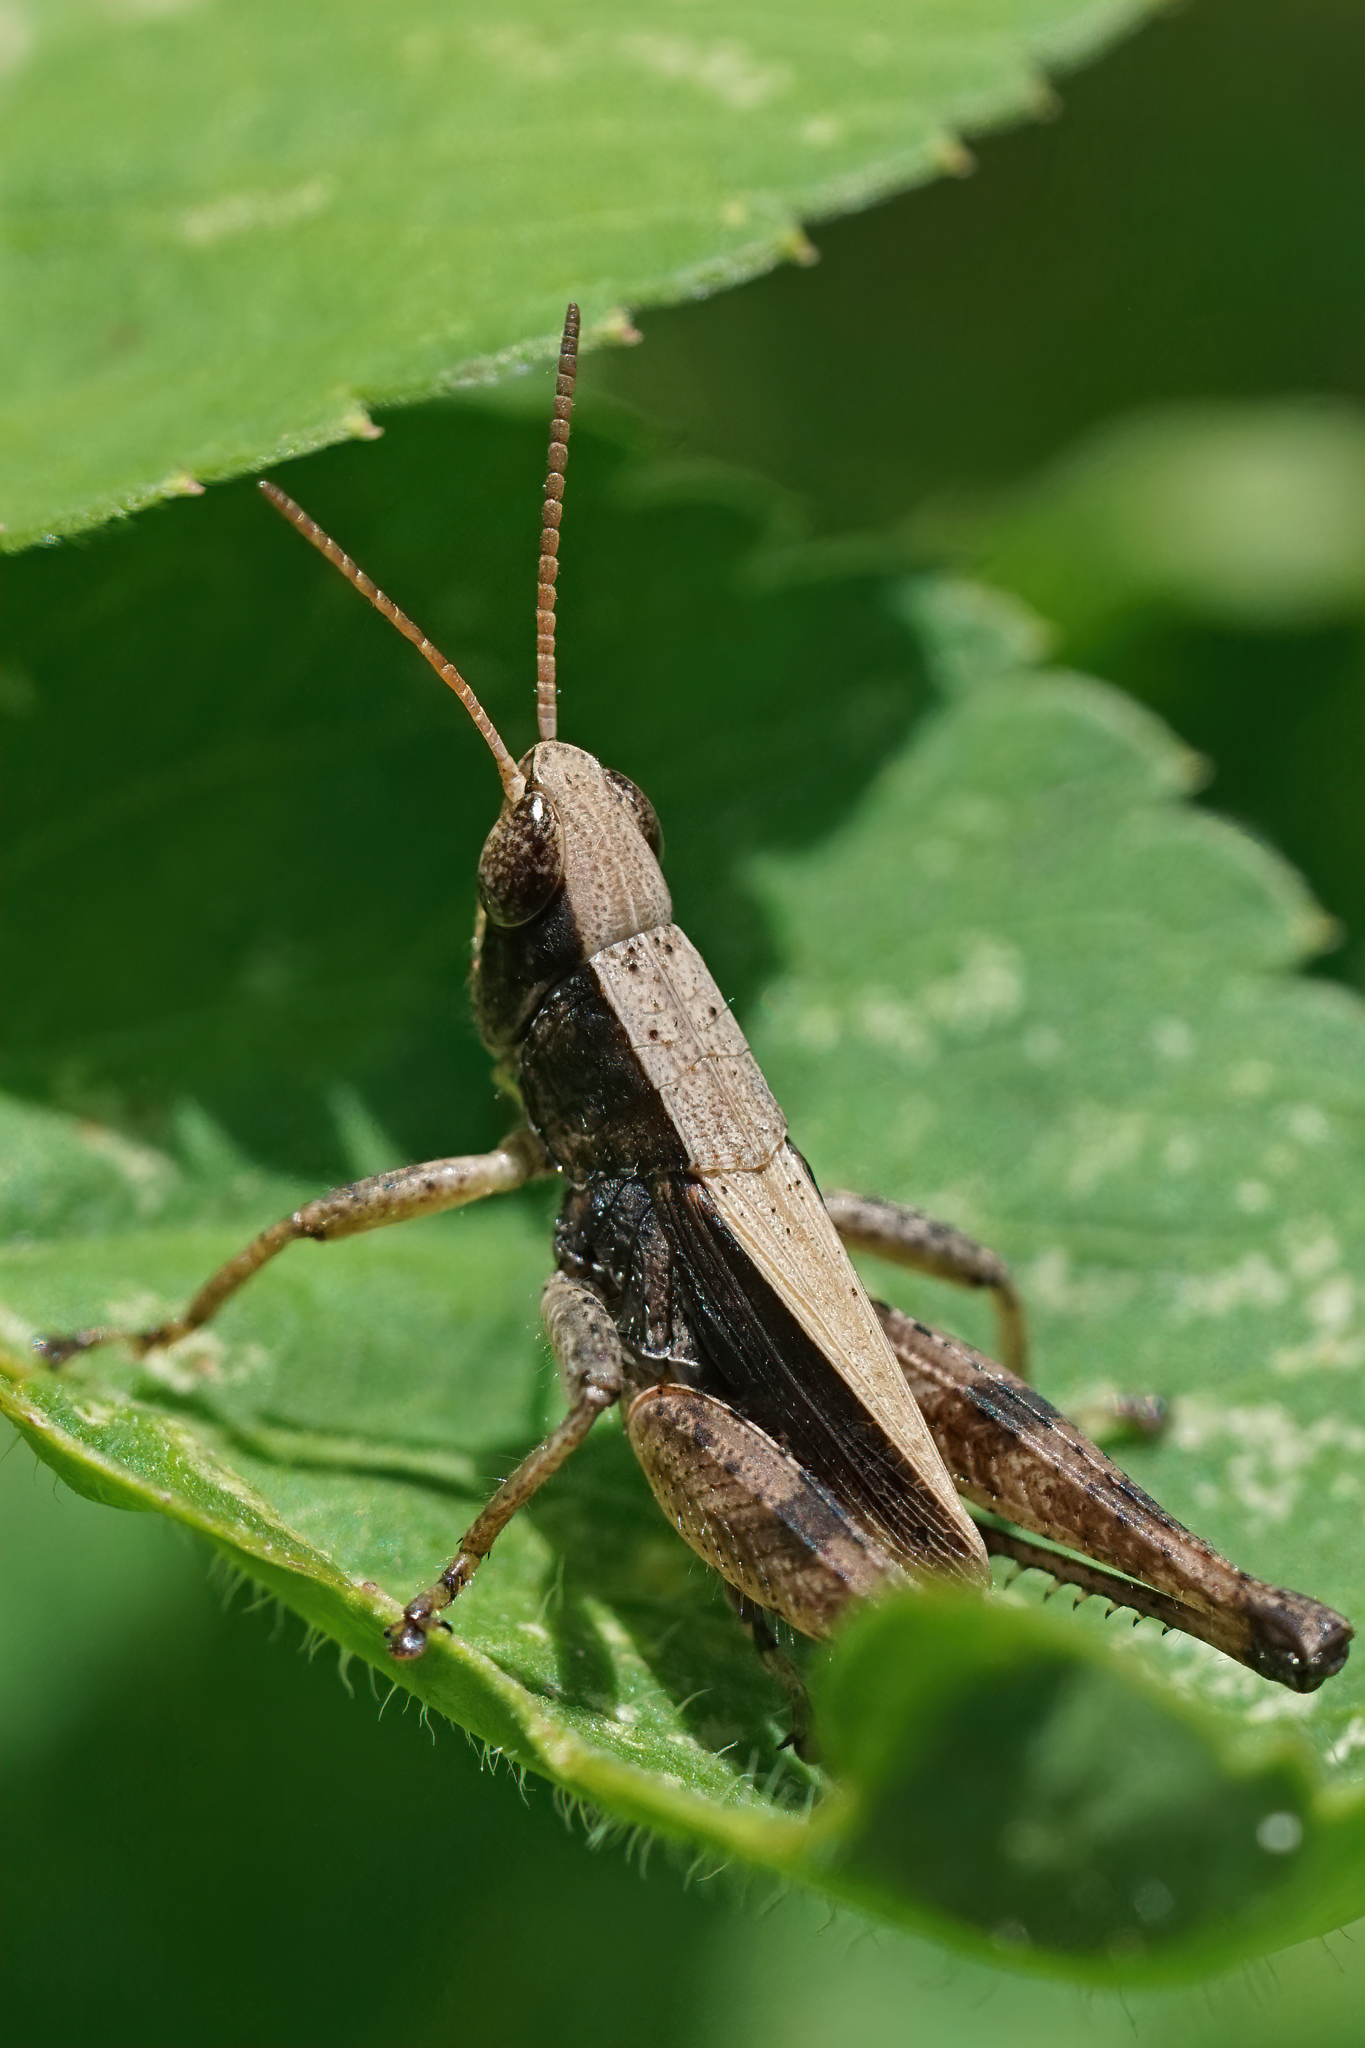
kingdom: Animalia
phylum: Arthropoda
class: Insecta
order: Orthoptera
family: Acrididae
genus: Dichromorpha
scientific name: Dichromorpha viridis
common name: Short-winged green grasshopper
